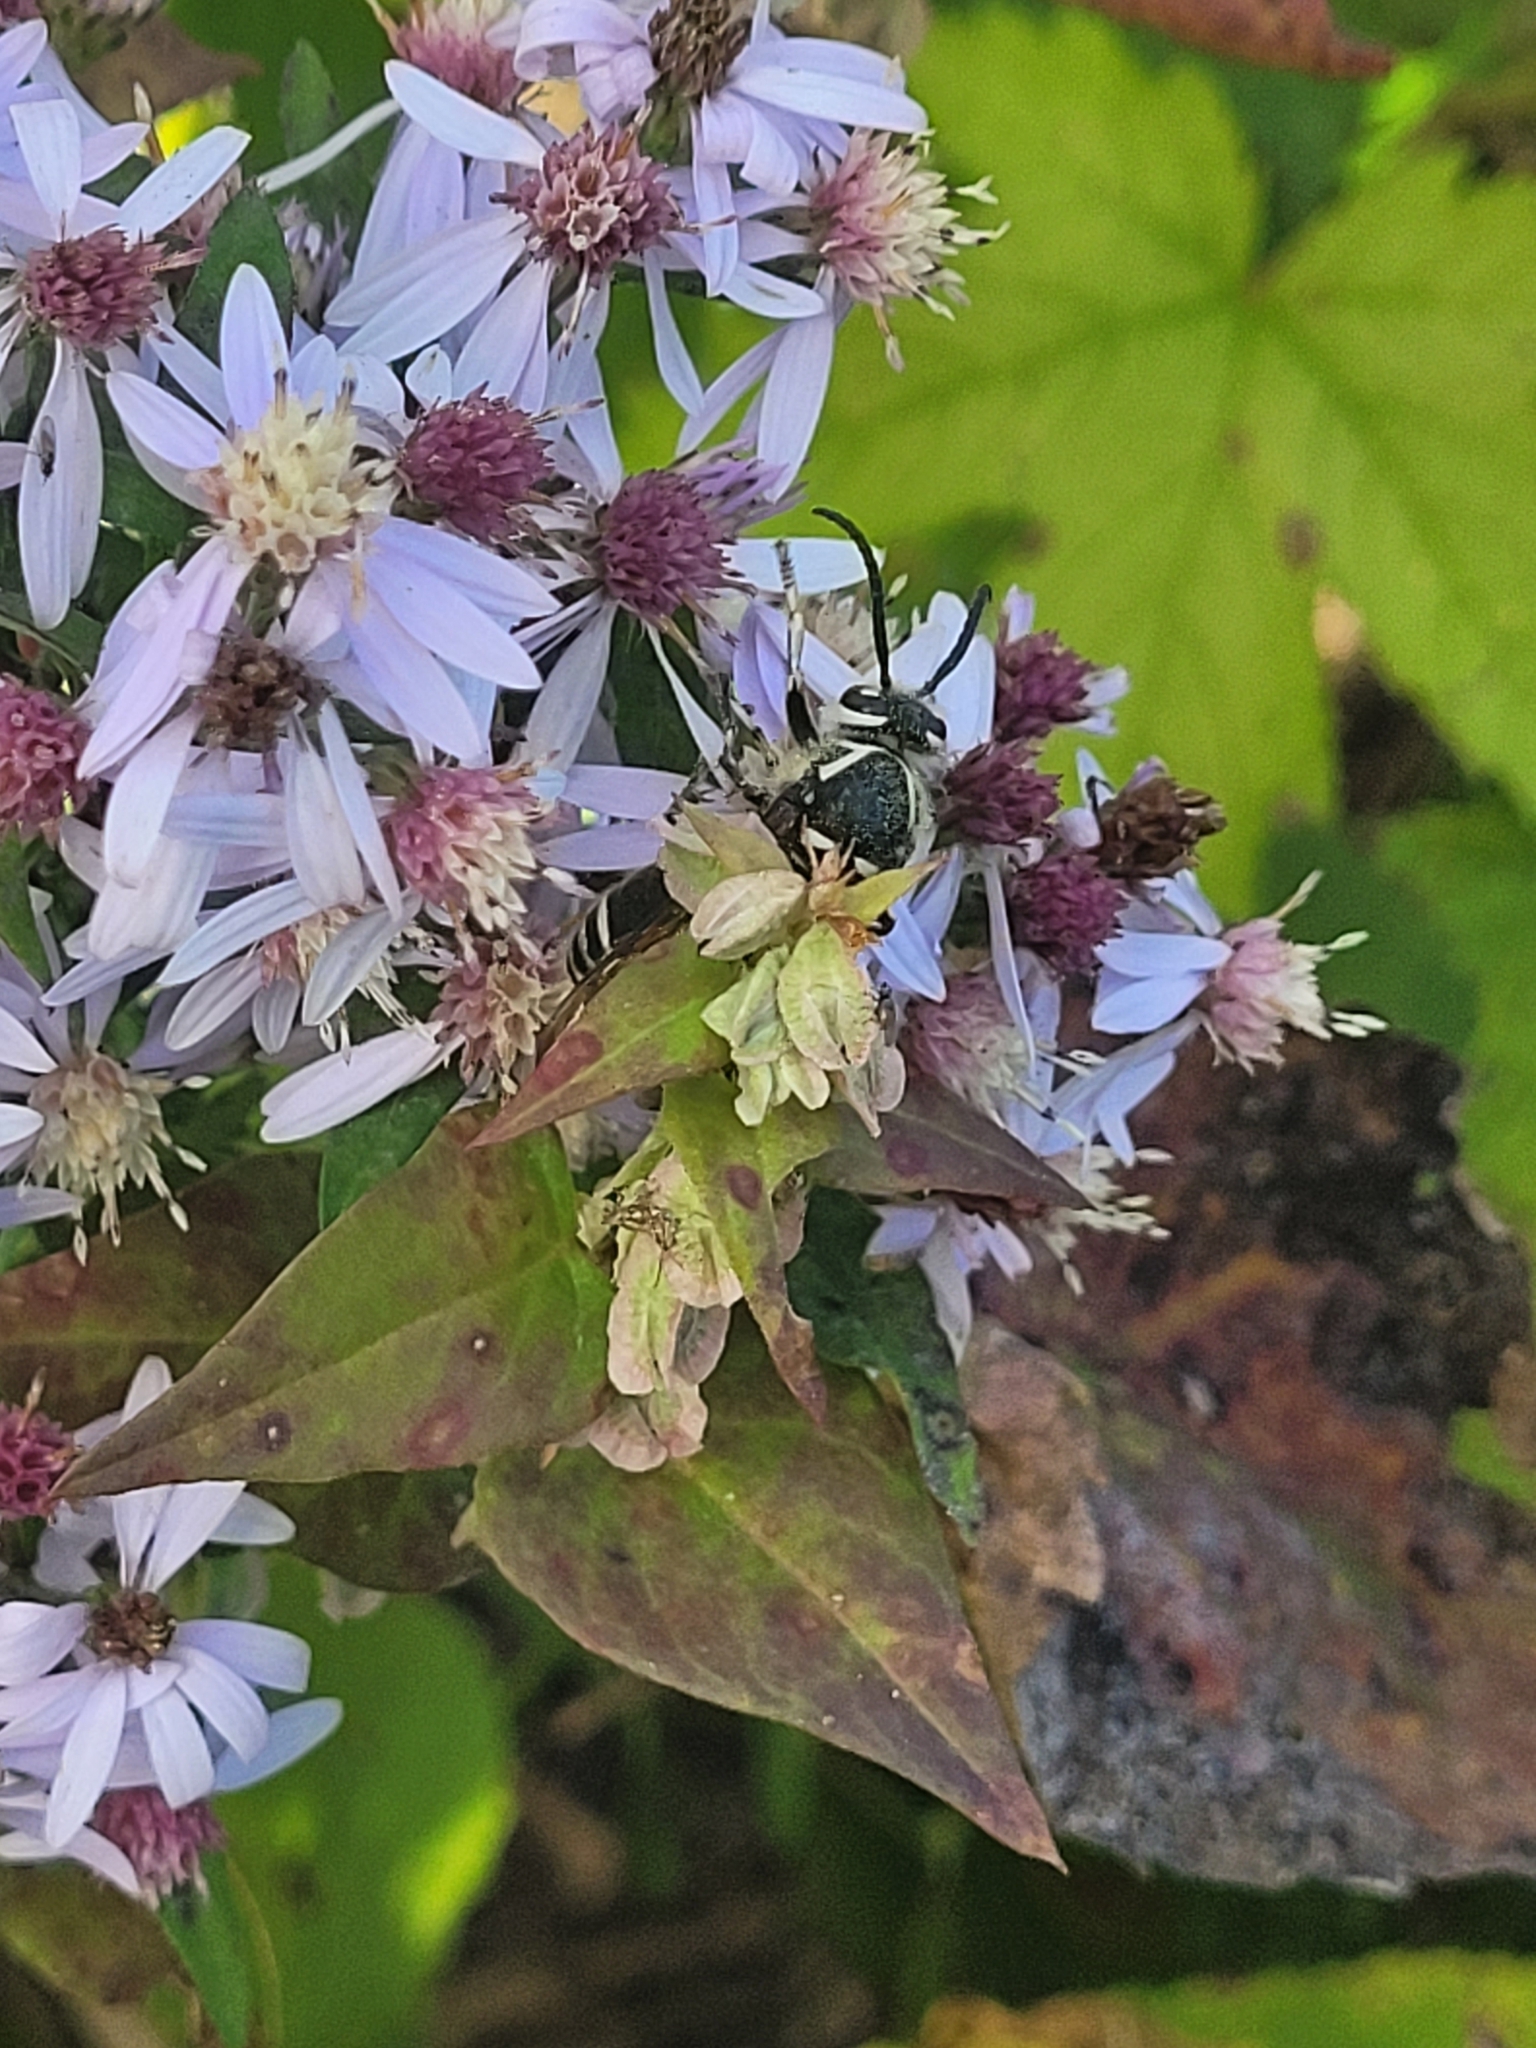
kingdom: Animalia
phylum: Arthropoda
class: Insecta
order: Hymenoptera
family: Vespidae
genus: Dolichovespula
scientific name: Dolichovespula maculata
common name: Bald-faced hornet
